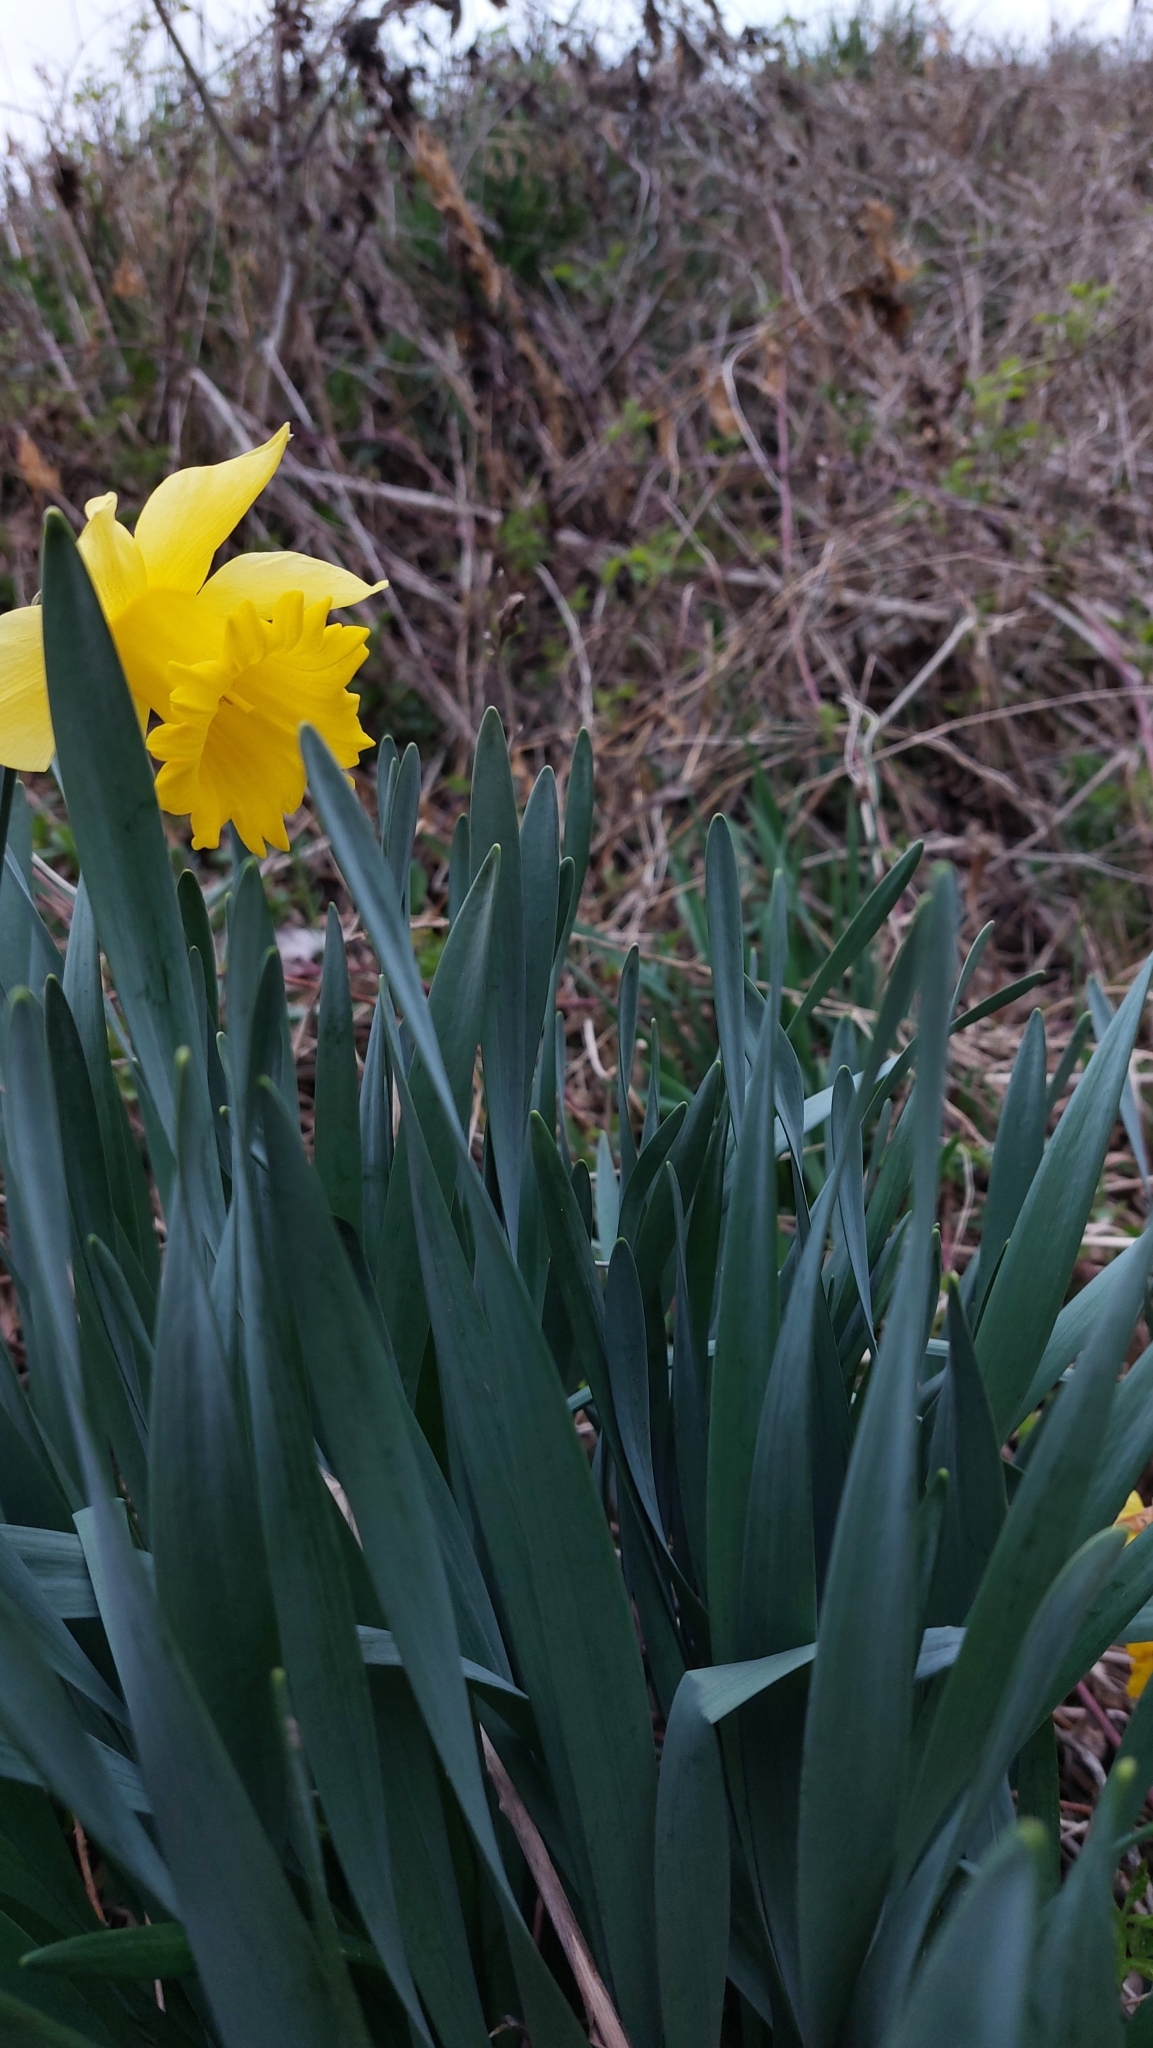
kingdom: Plantae
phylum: Tracheophyta
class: Liliopsida
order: Asparagales
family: Amaryllidaceae
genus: Narcissus
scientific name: Narcissus pseudonarcissus
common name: Daffodil
